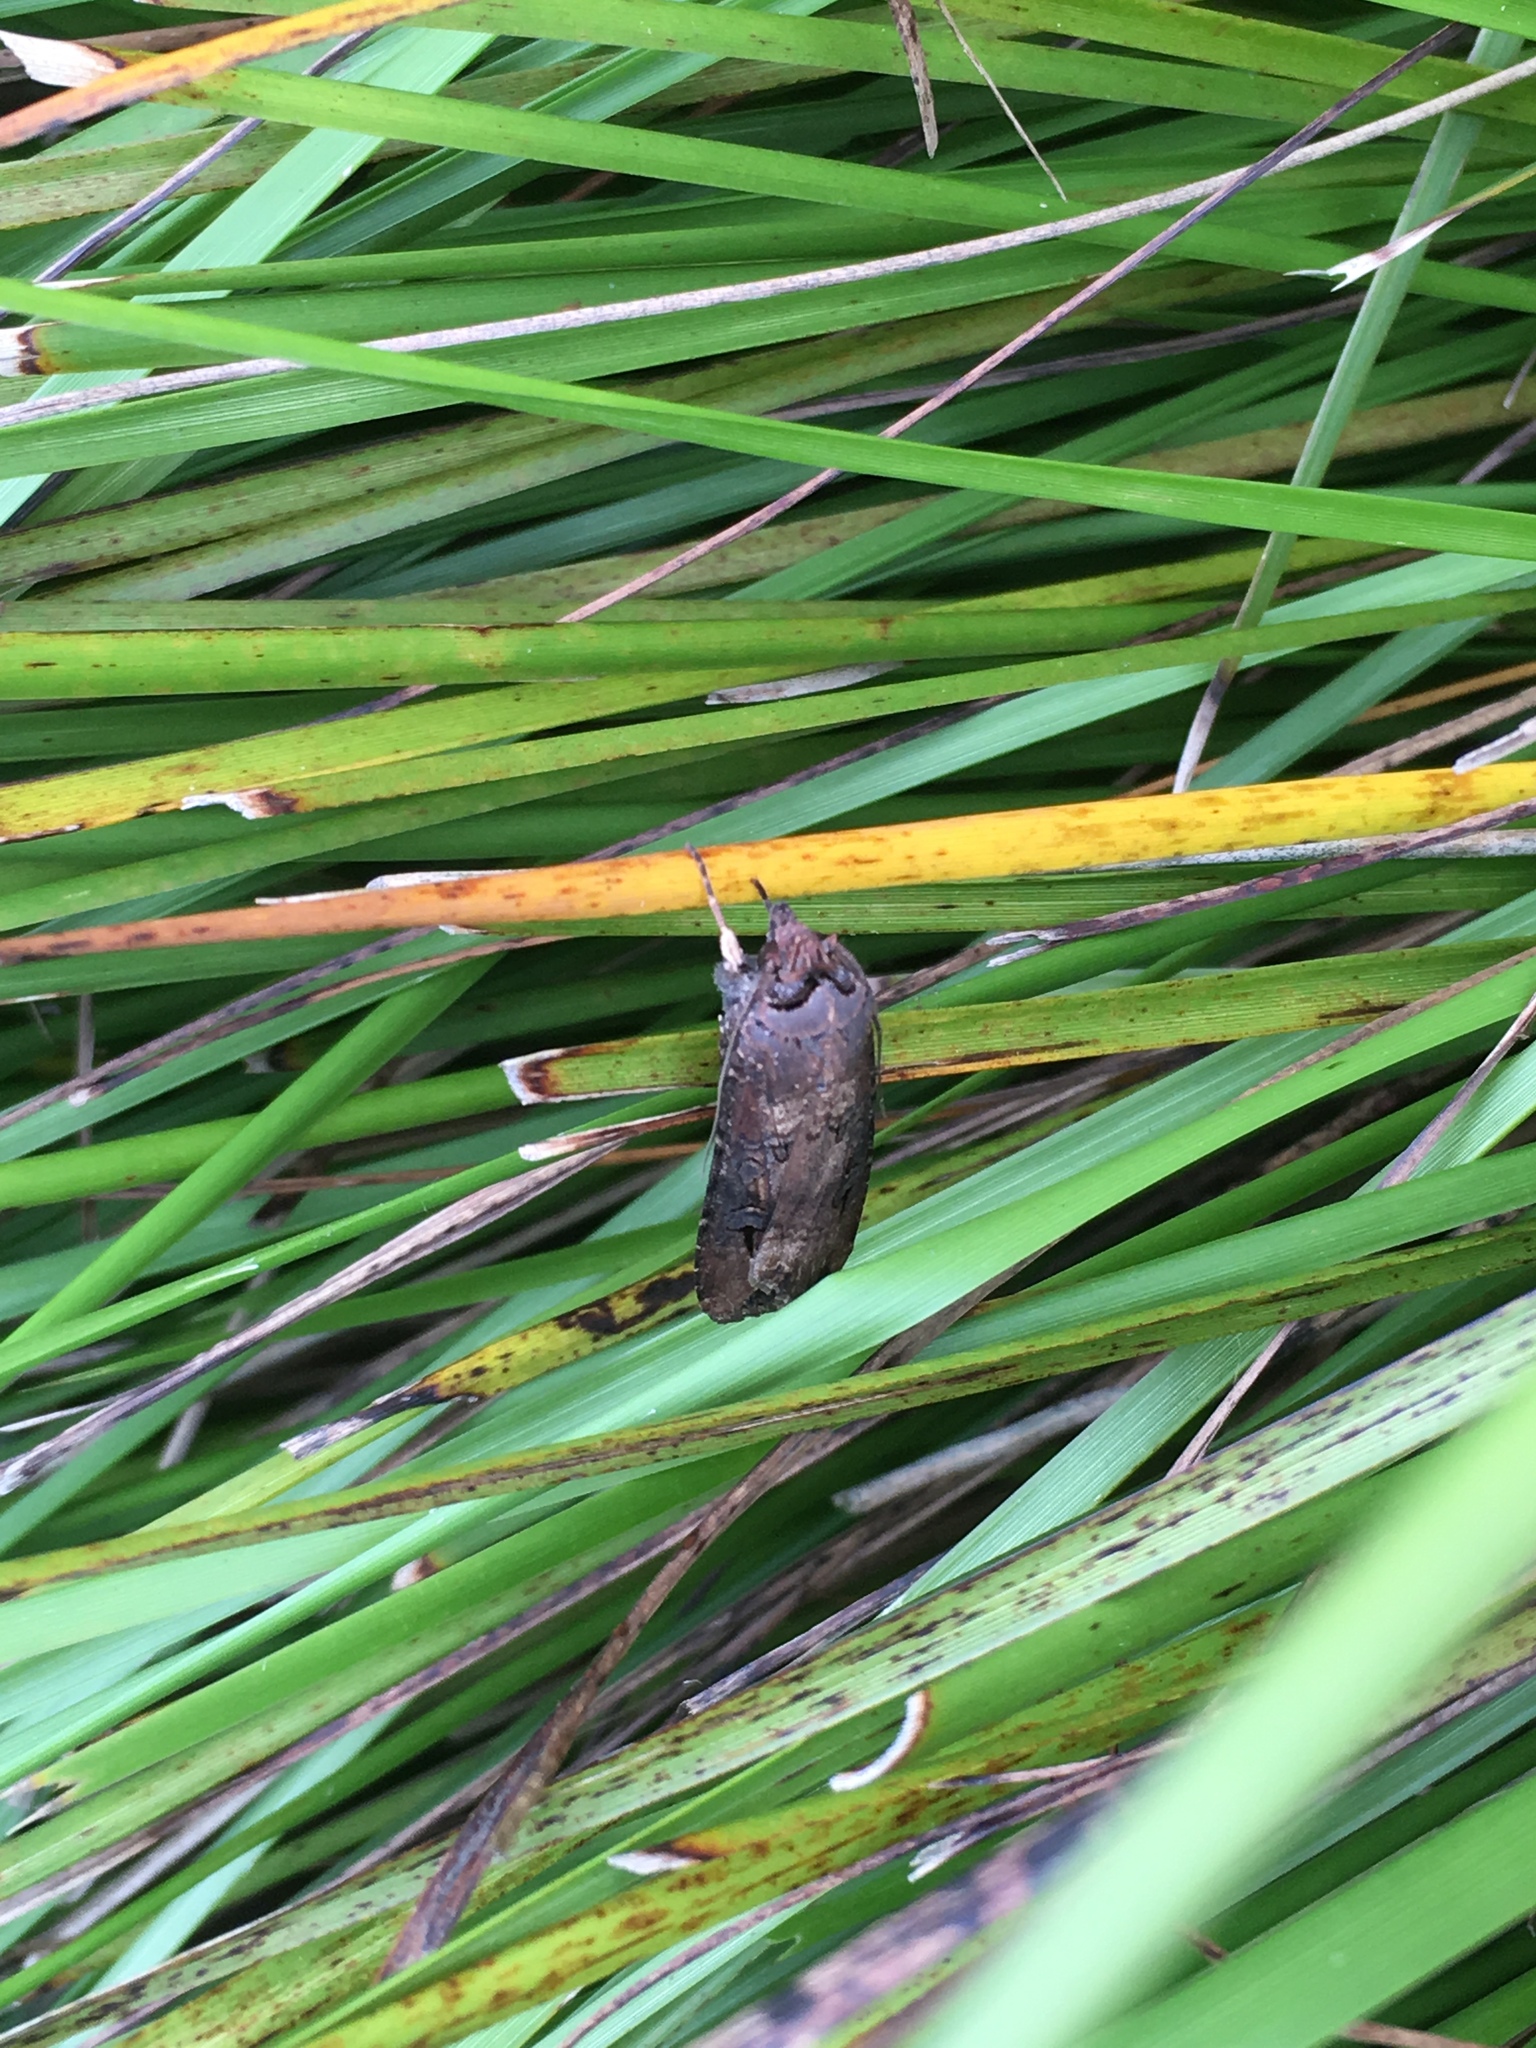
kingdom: Animalia
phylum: Arthropoda
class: Insecta
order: Lepidoptera
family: Noctuidae
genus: Agrotis
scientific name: Agrotis ipsilon
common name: Dark sword-grass
